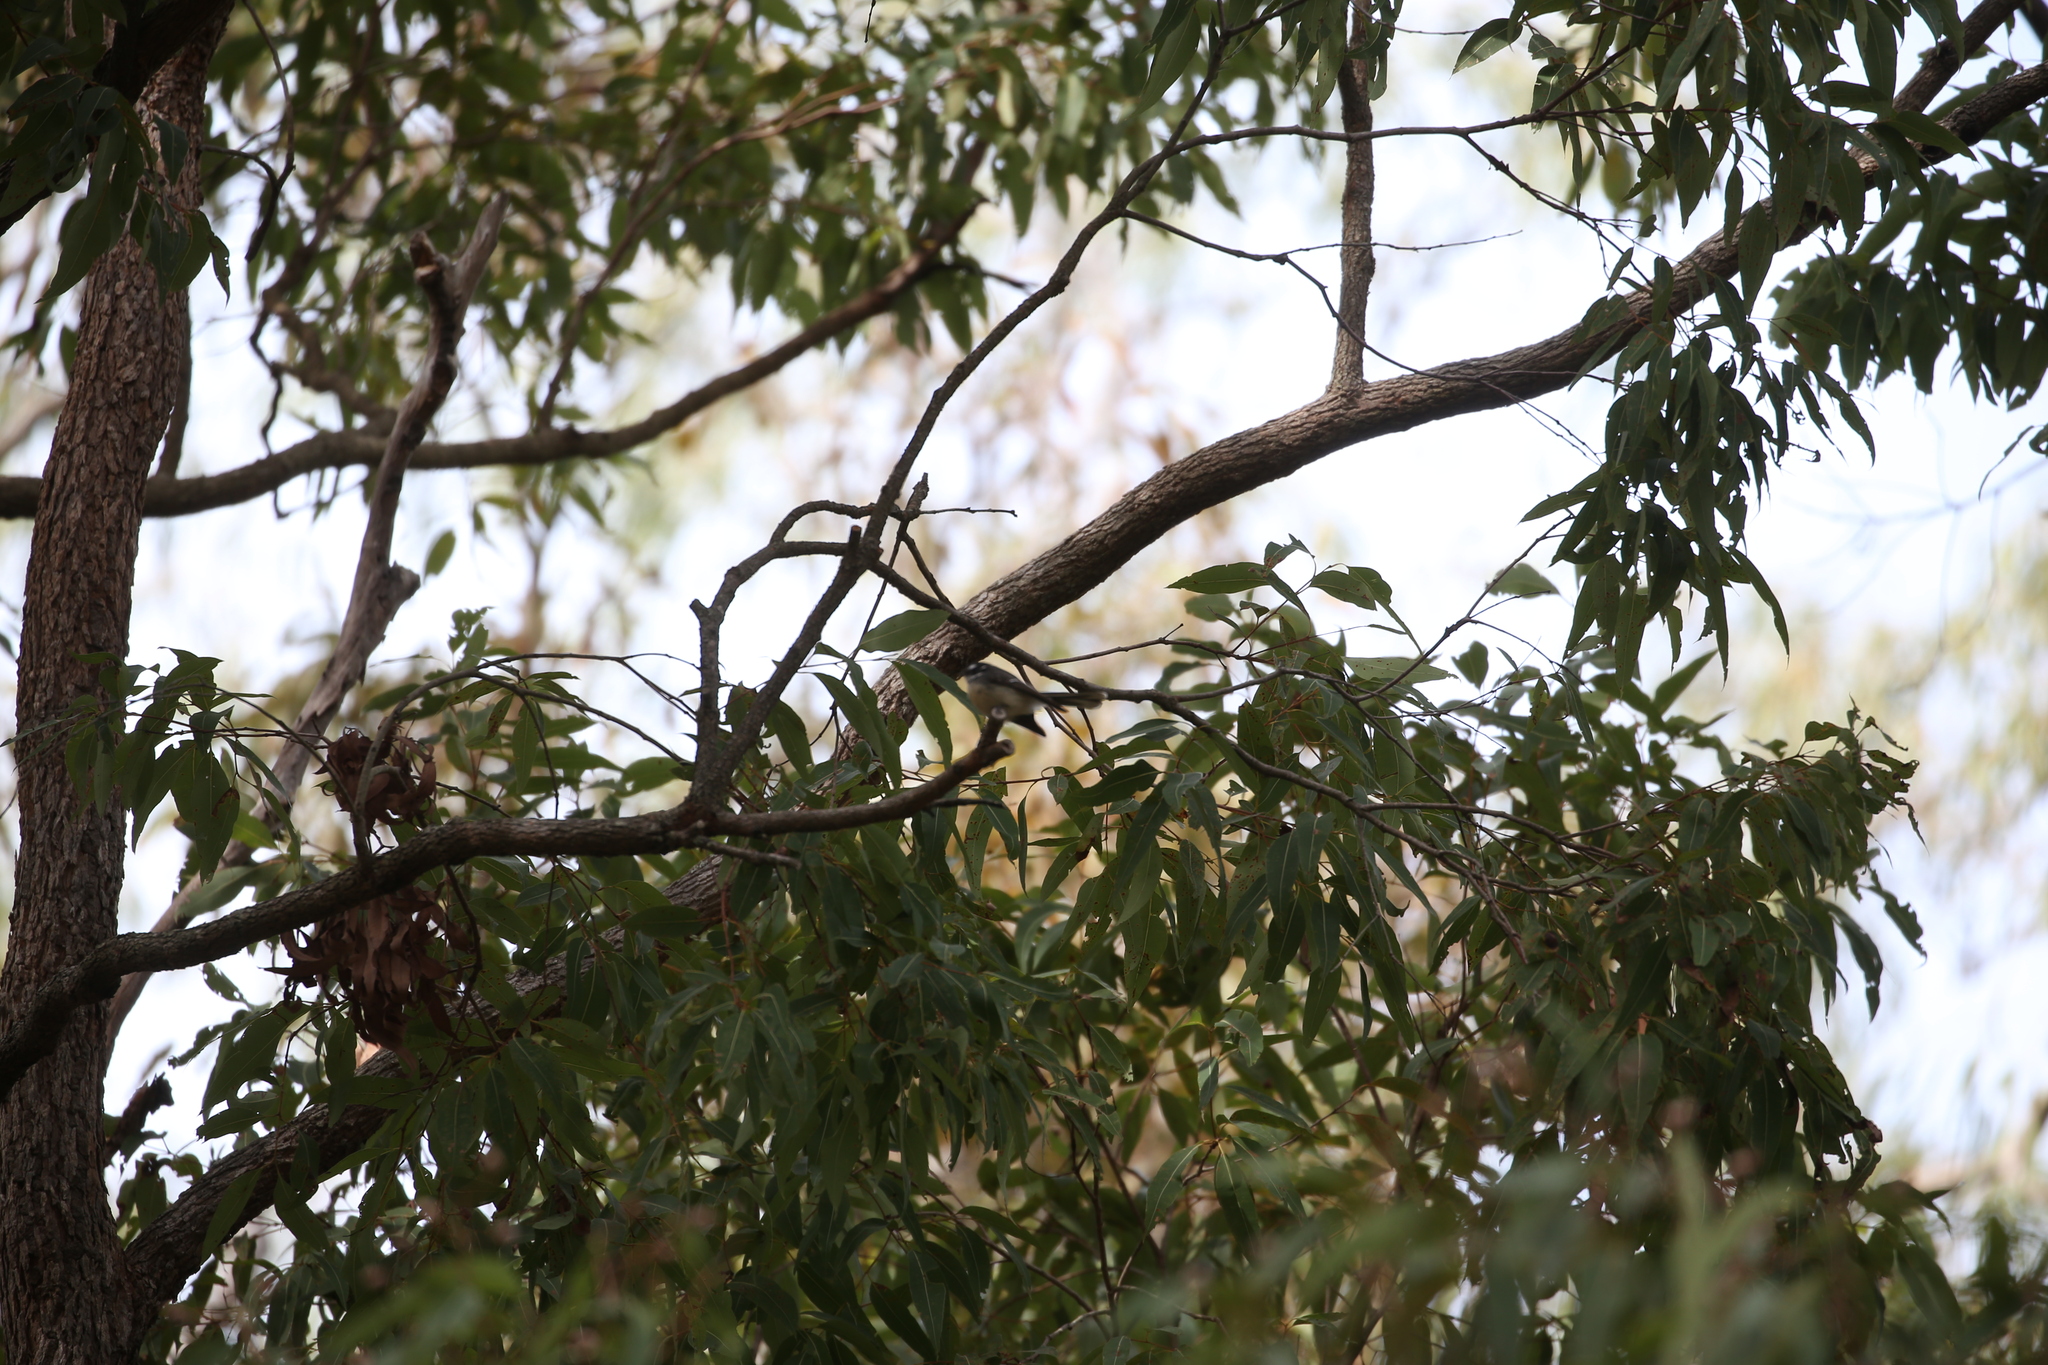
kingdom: Animalia
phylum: Chordata
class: Aves
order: Passeriformes
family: Rhipiduridae
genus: Rhipidura
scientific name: Rhipidura albiscapa
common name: Grey fantail
